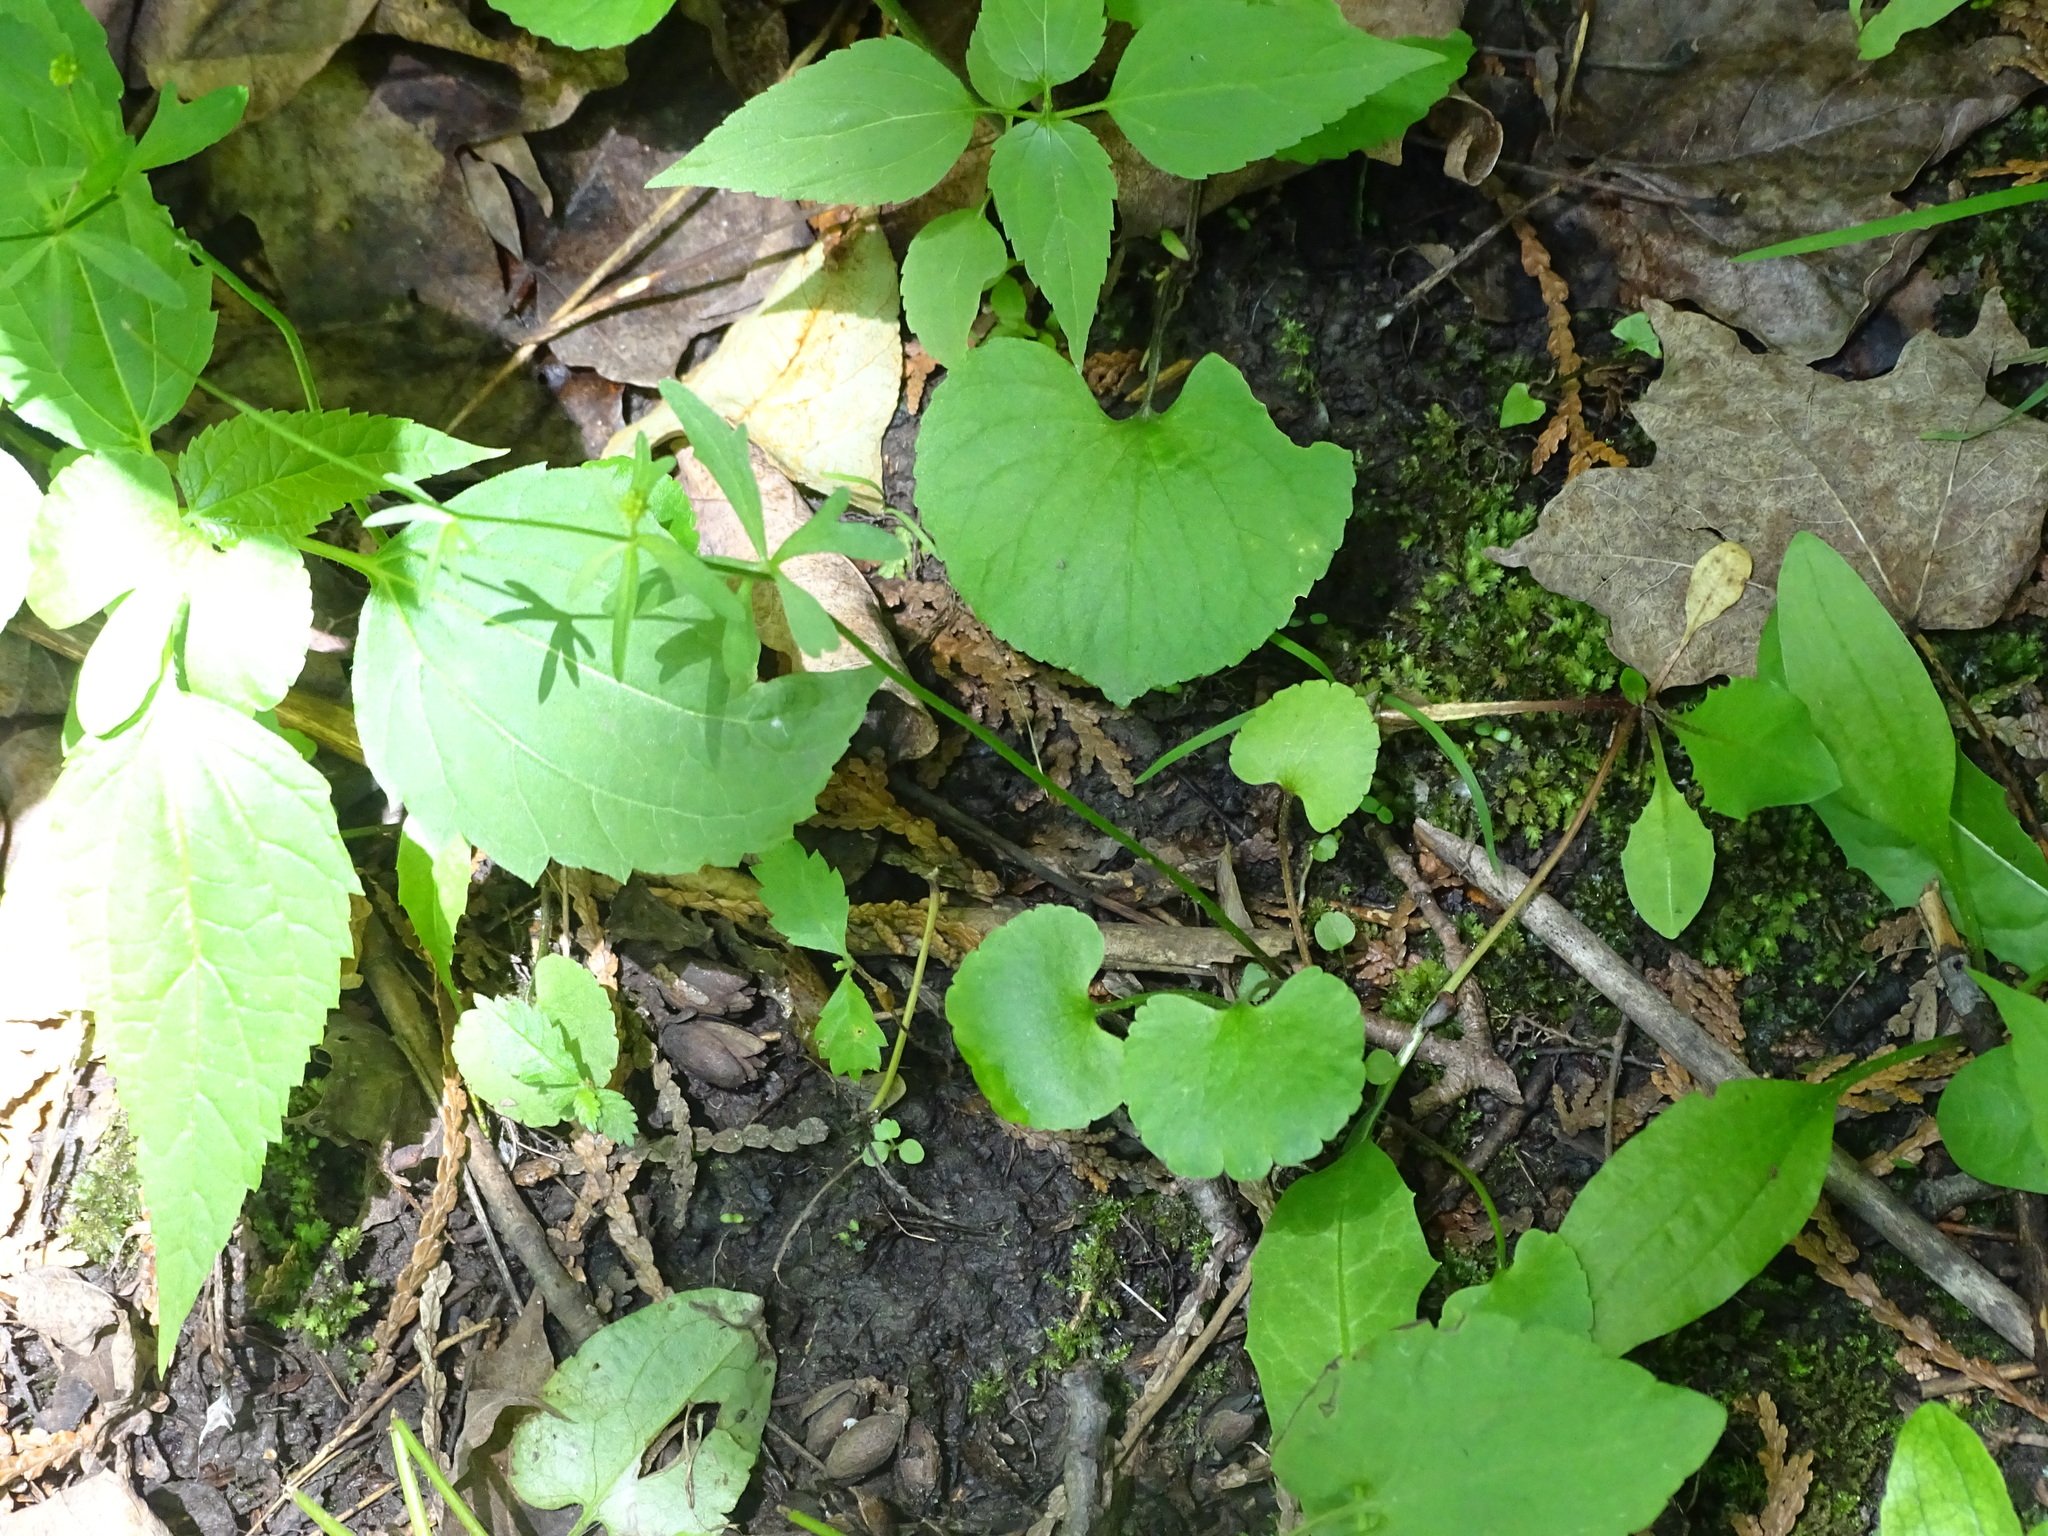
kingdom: Plantae
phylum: Tracheophyta
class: Magnoliopsida
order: Ranunculales
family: Ranunculaceae
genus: Ranunculus
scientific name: Ranunculus abortivus
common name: Early wood buttercup
